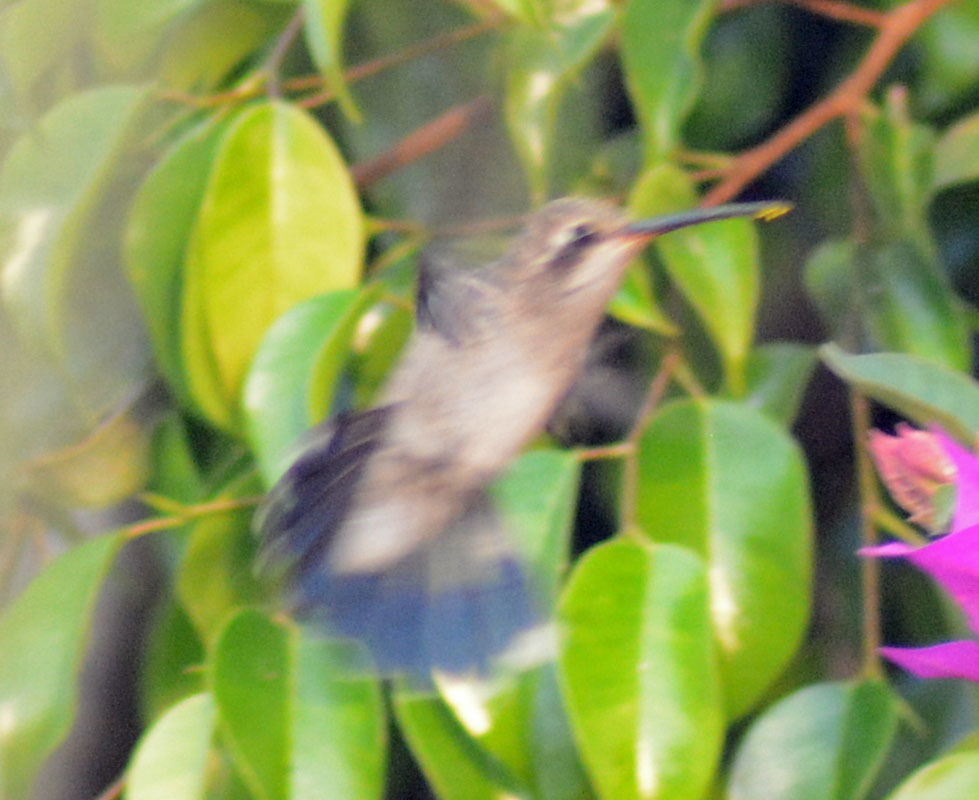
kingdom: Animalia
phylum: Chordata
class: Aves
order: Apodiformes
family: Trochilidae
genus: Cynanthus
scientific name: Cynanthus latirostris
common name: Broad-billed hummingbird
